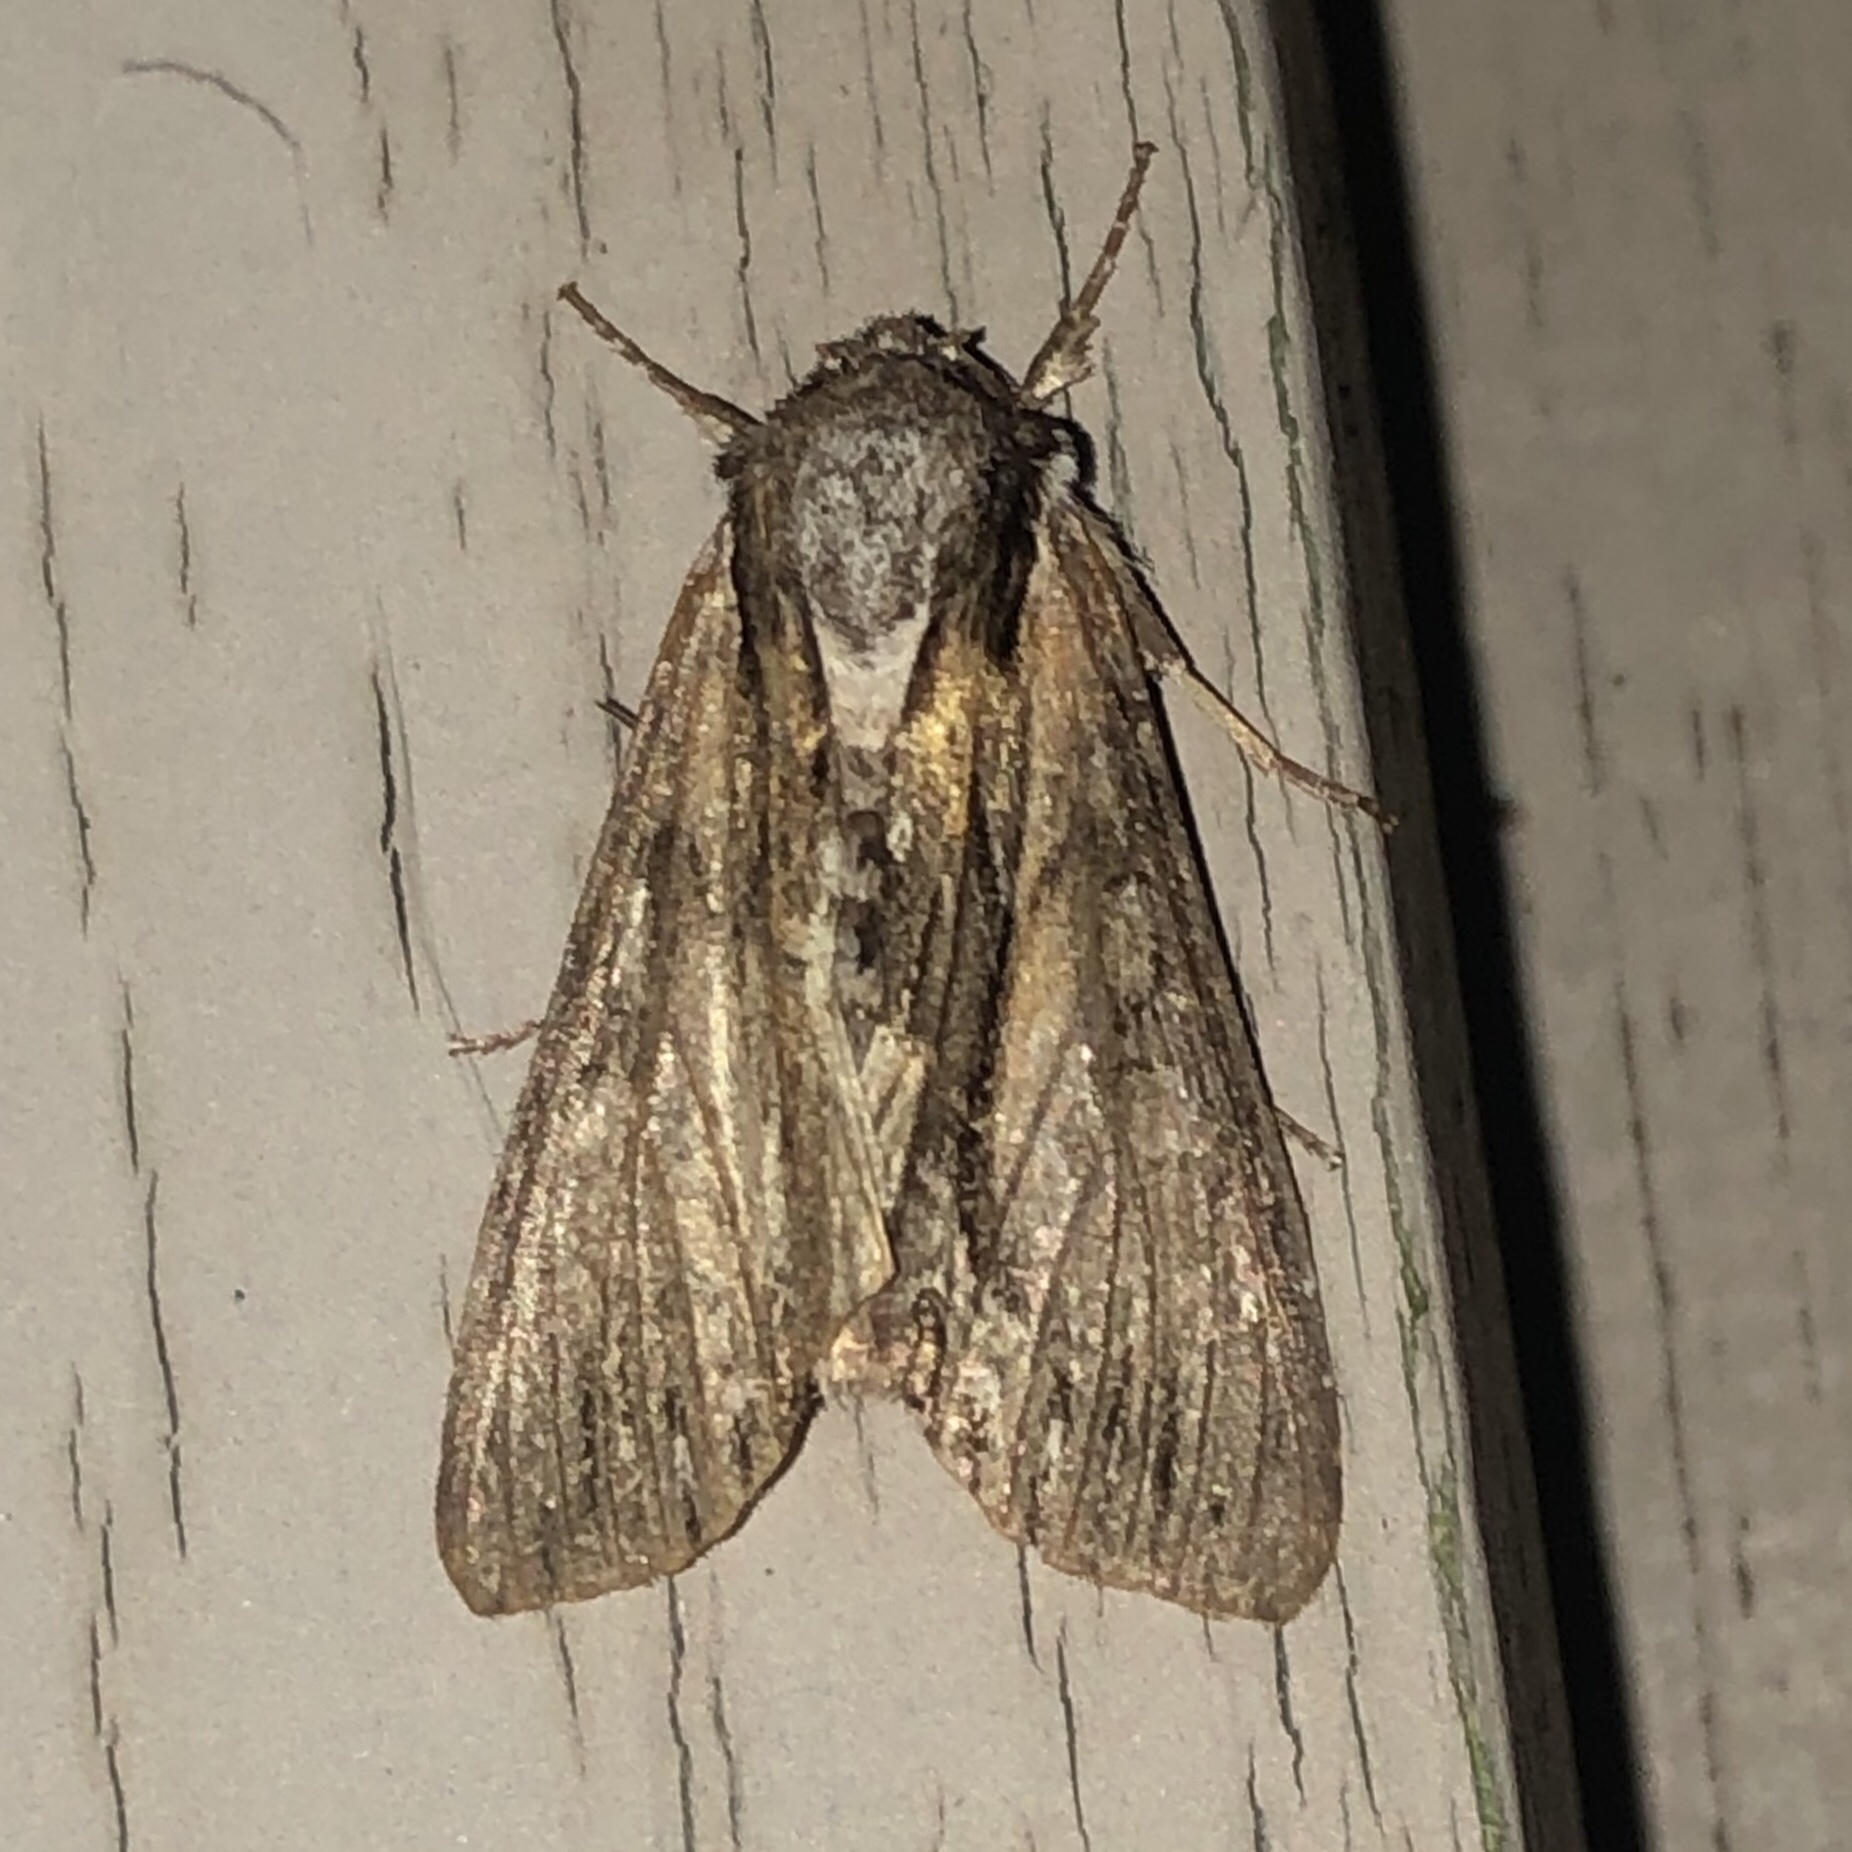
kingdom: Animalia
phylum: Arthropoda
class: Insecta
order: Lepidoptera
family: Noctuidae
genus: Hyppa
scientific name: Hyppa xylinoides
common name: Common hyppa moth
